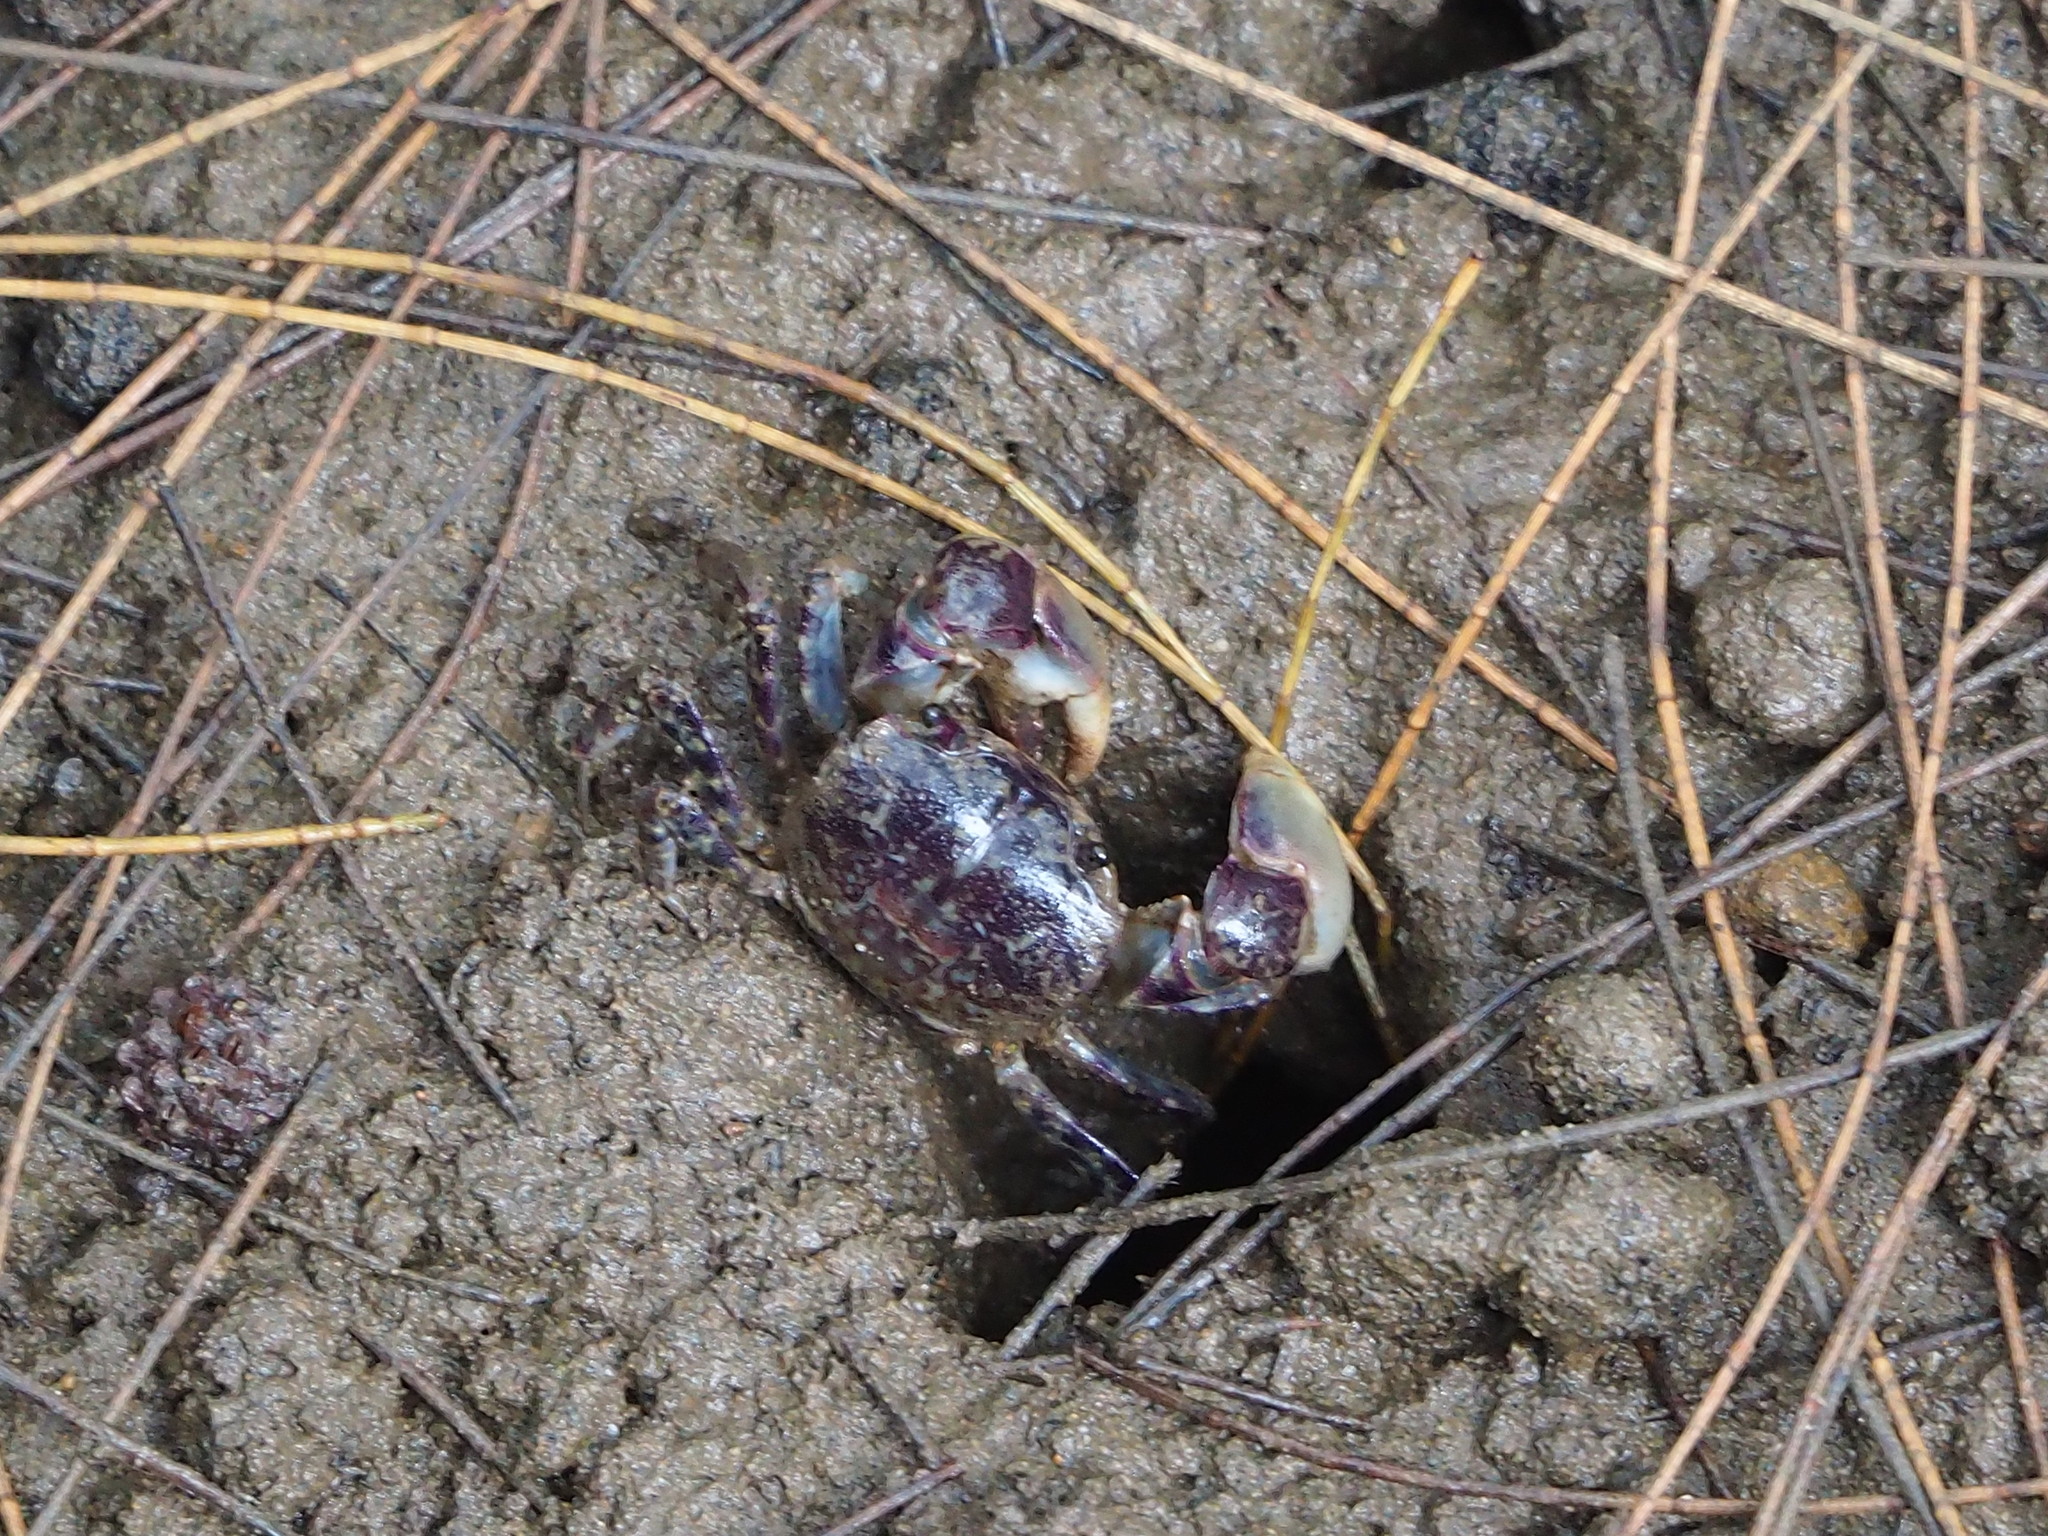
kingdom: Animalia
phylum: Arthropoda
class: Malacostraca
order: Decapoda
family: Varunidae
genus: Pseudohelice
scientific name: Pseudohelice subquadrata
